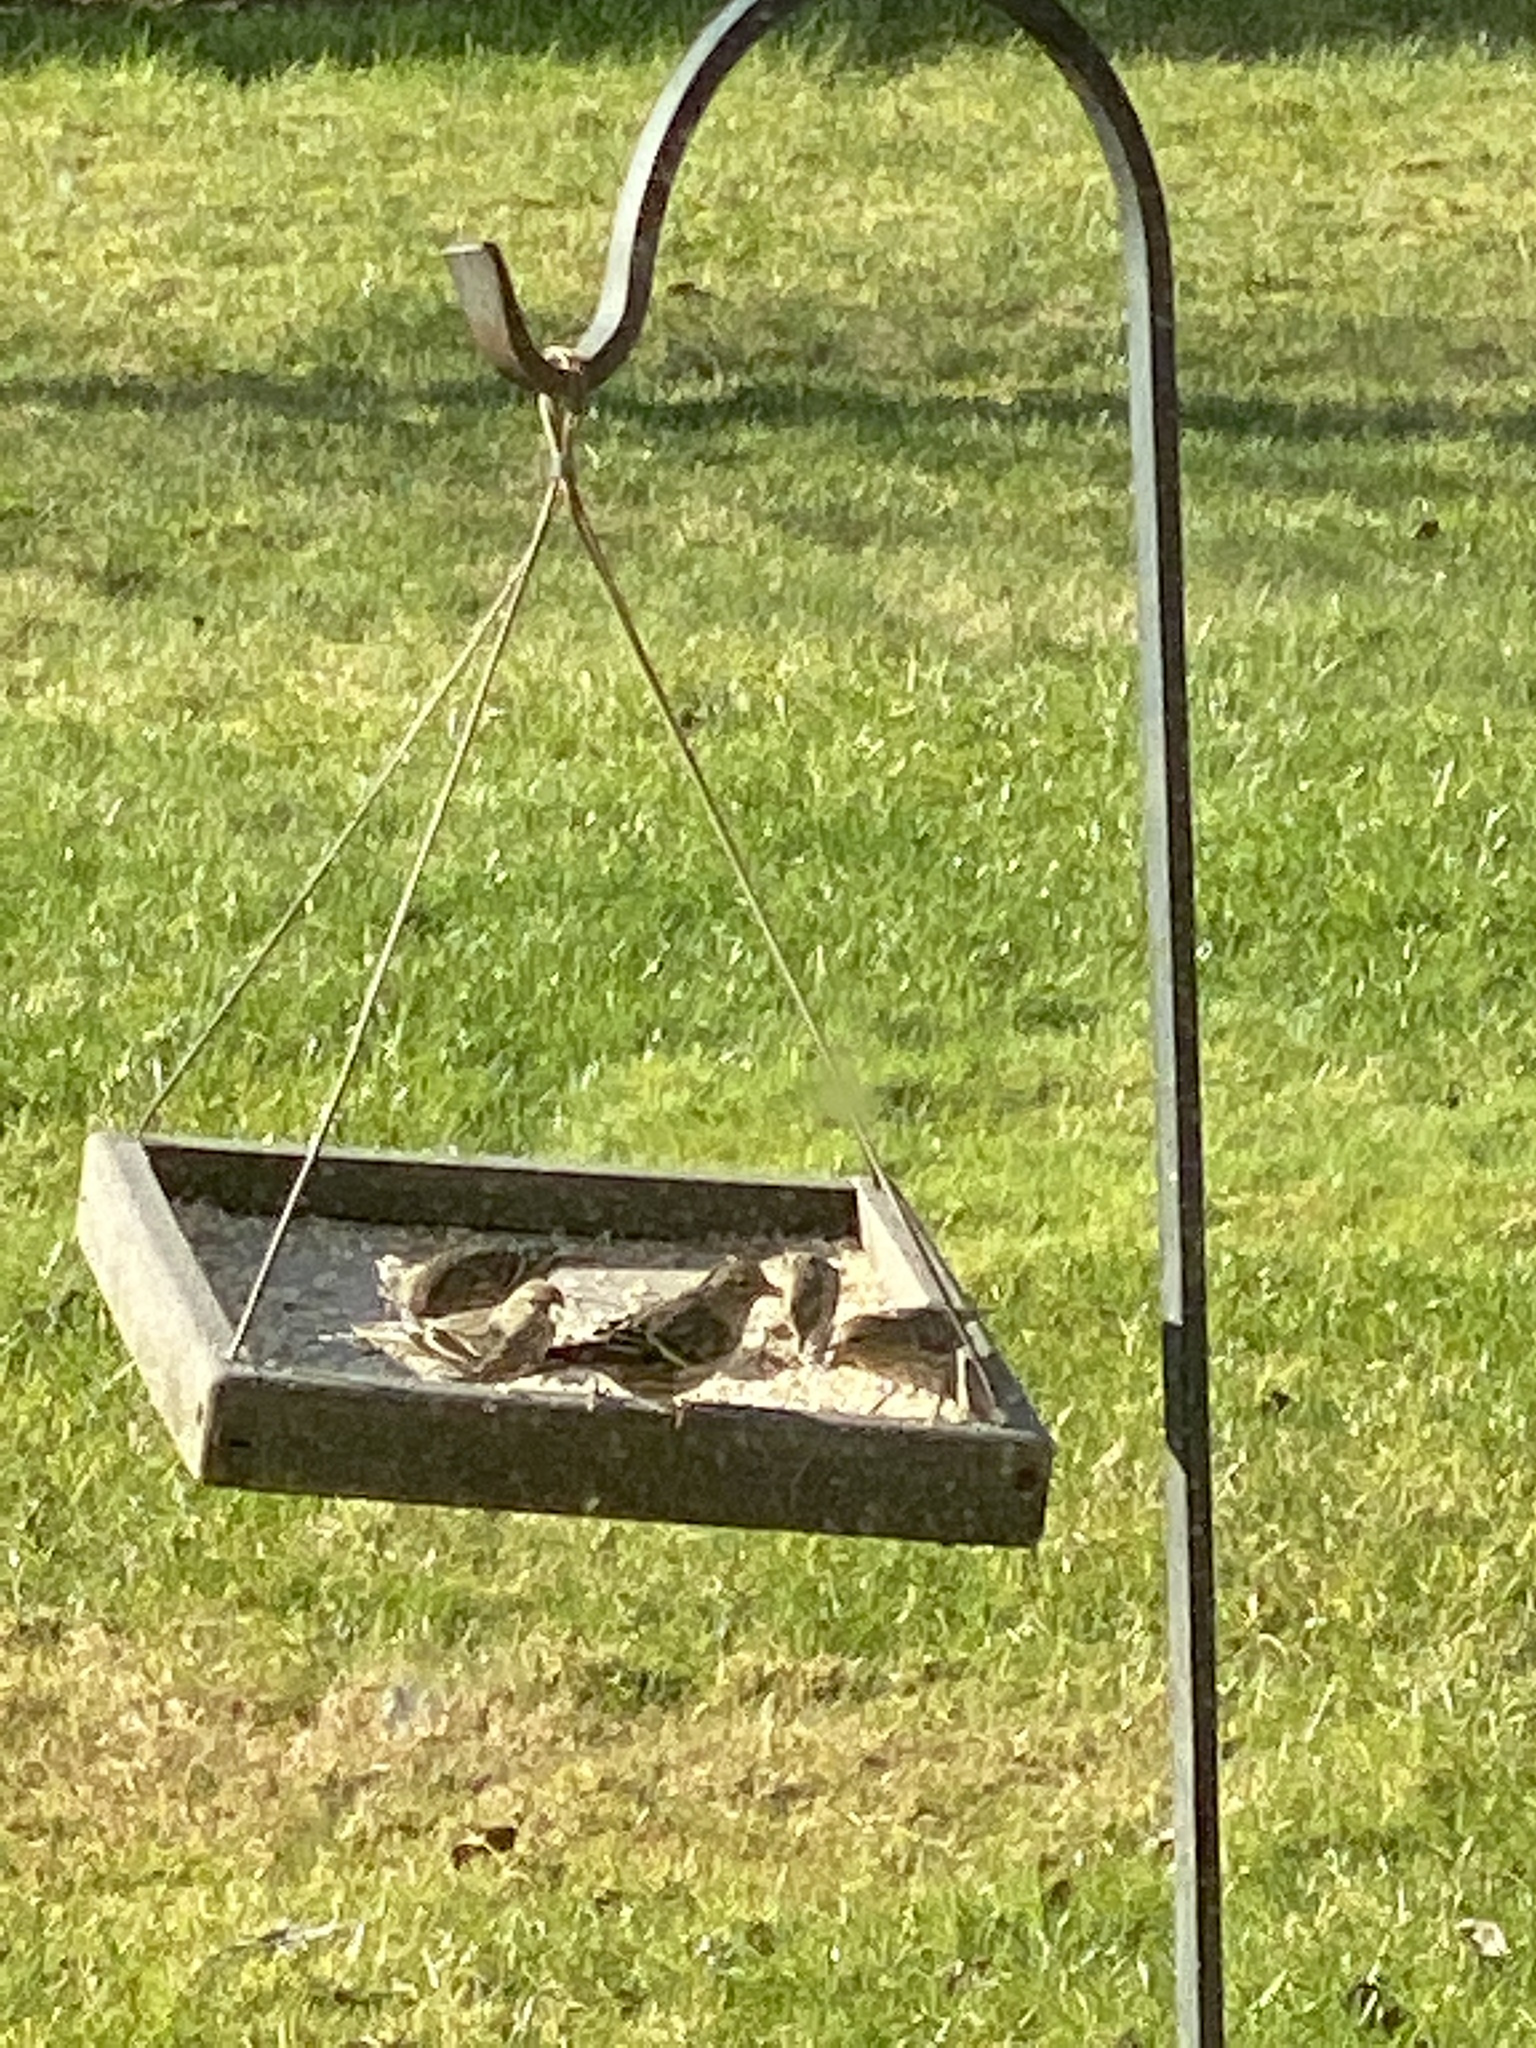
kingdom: Animalia
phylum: Chordata
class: Aves
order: Passeriformes
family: Fringillidae
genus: Spinus
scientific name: Spinus pinus
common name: Pine siskin
